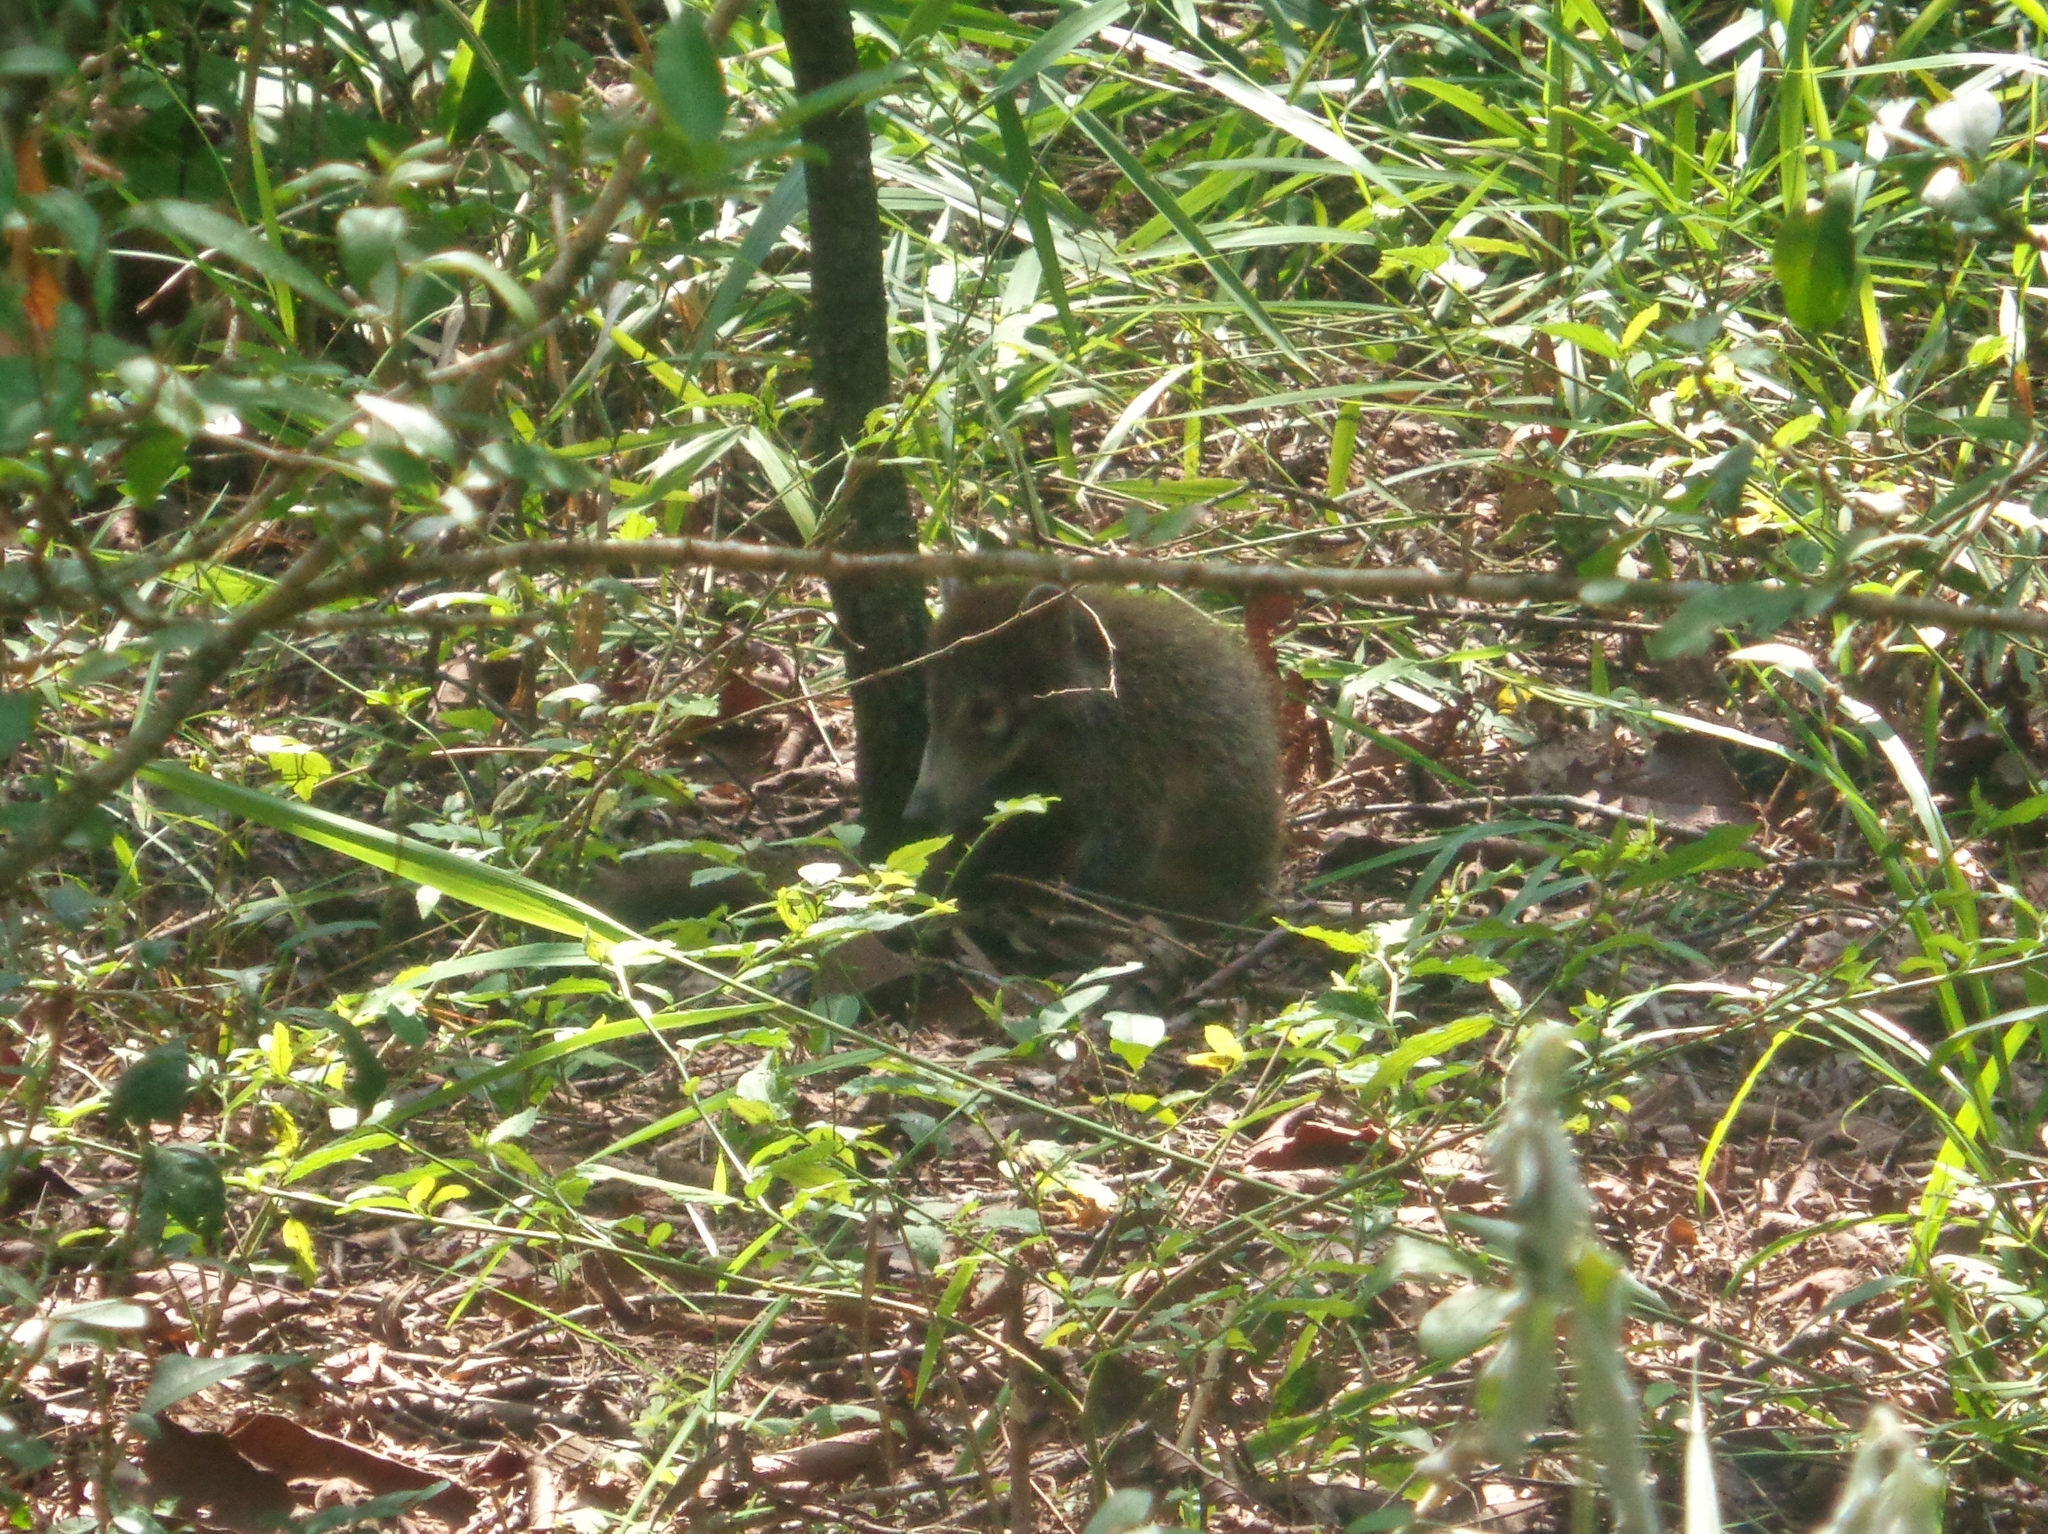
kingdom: Animalia
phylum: Chordata
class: Mammalia
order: Carnivora
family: Procyonidae
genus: Nasua
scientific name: Nasua narica
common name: White-nosed coati
